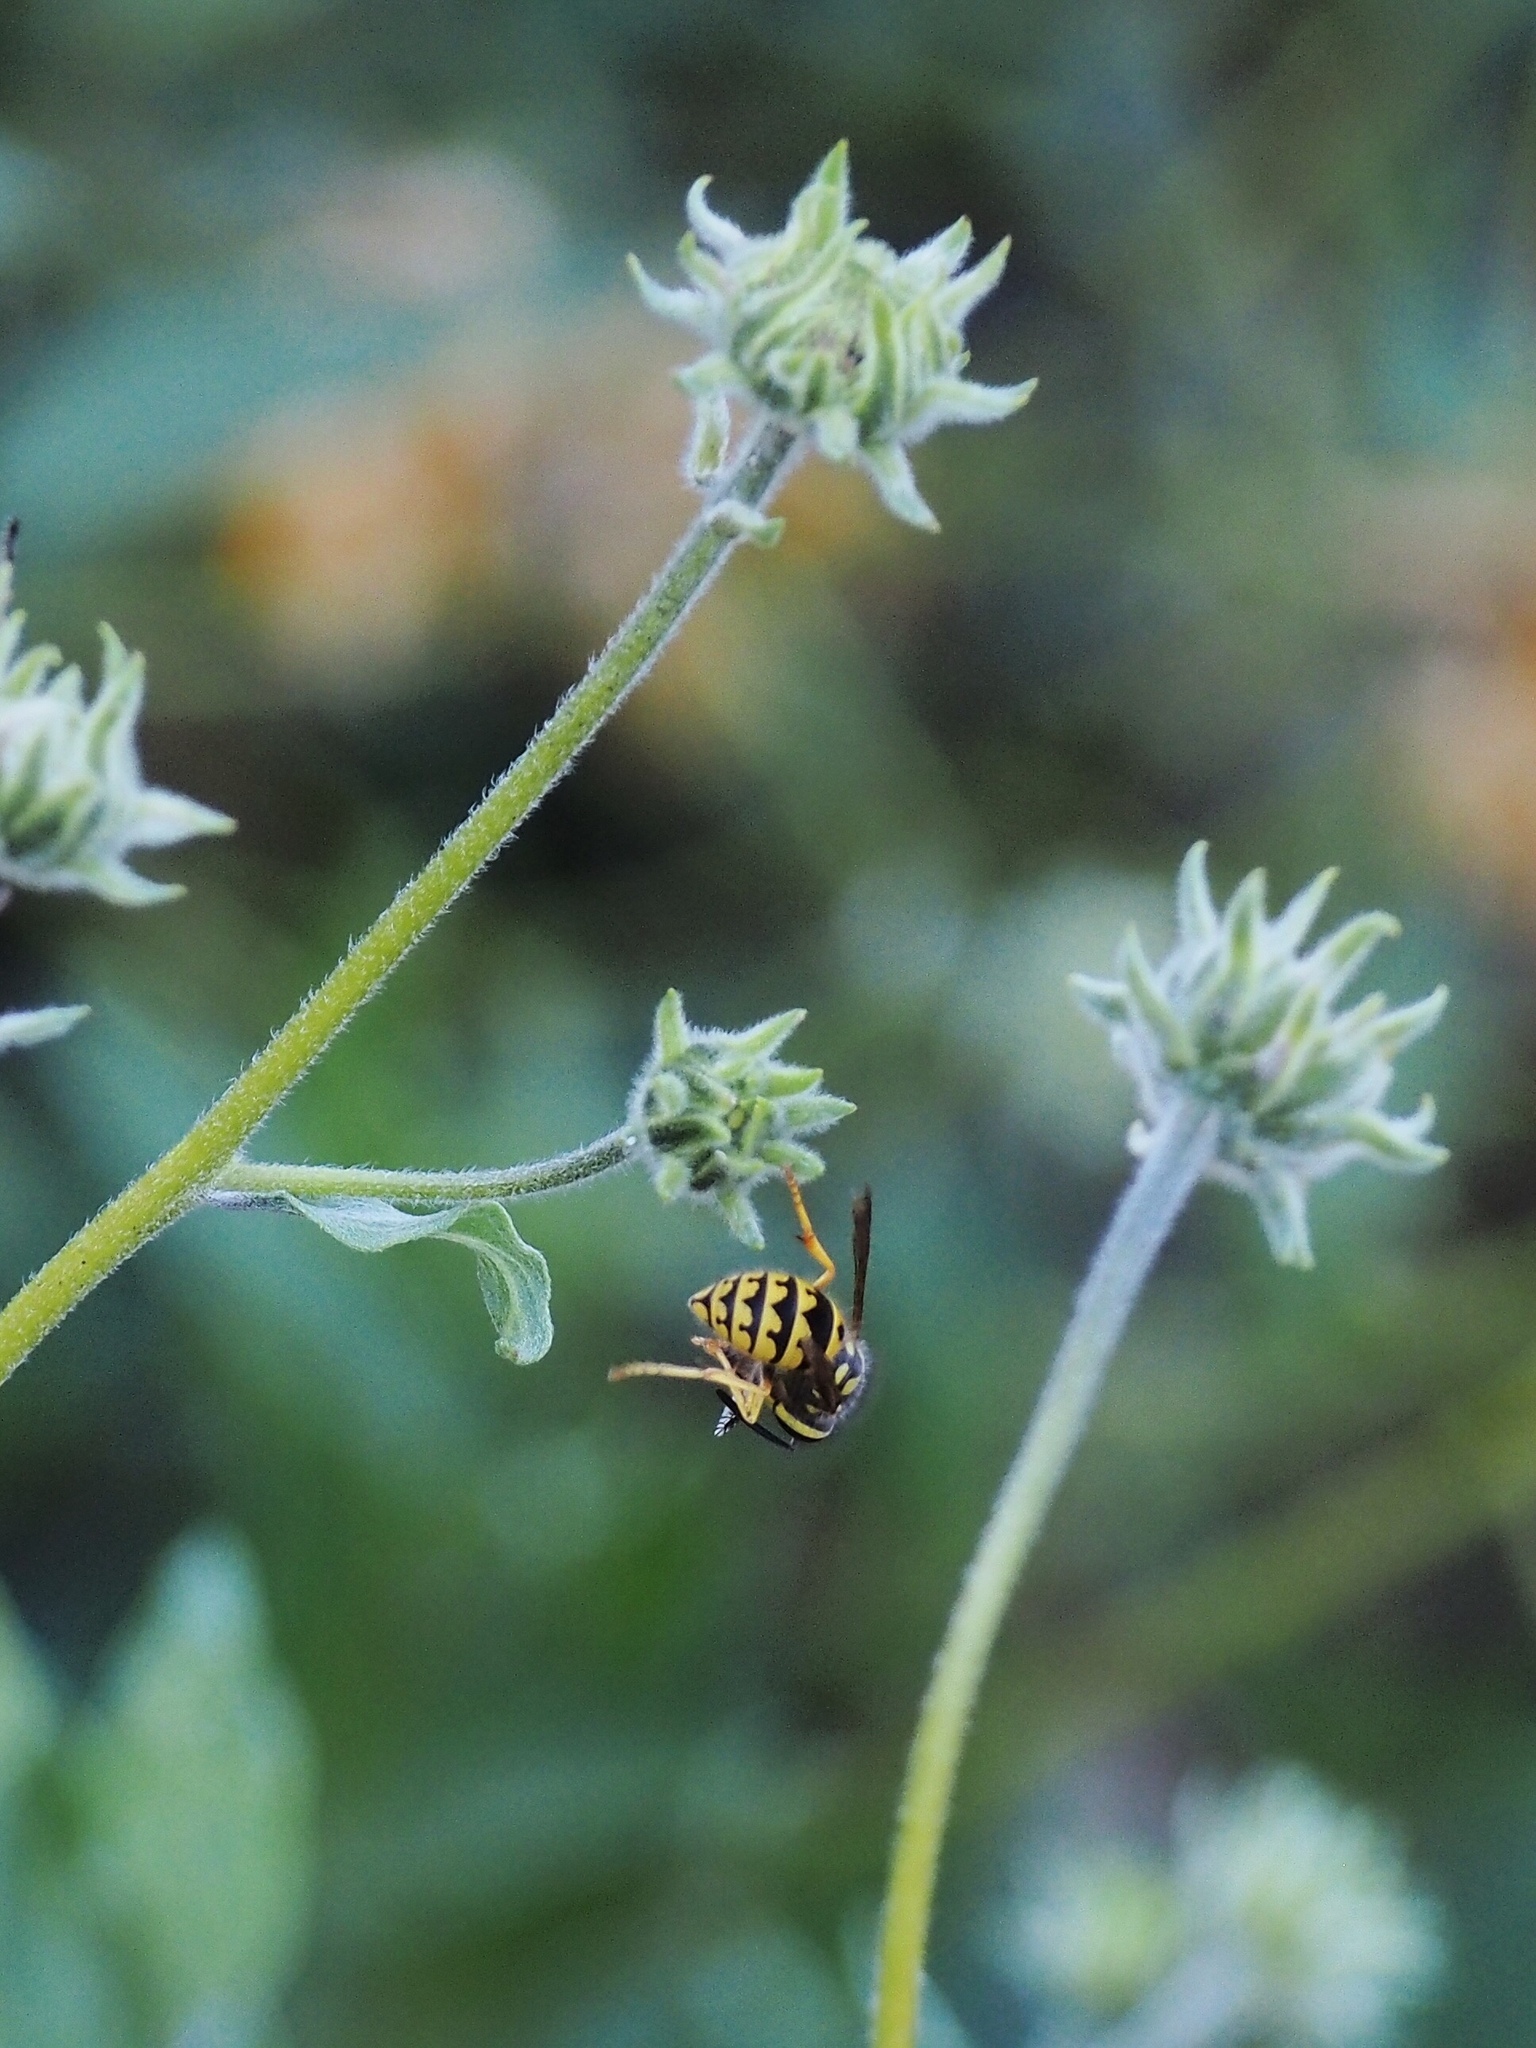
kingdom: Animalia
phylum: Arthropoda
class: Insecta
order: Hymenoptera
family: Vespidae
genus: Vespula
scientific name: Vespula pensylvanica
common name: Western yellowjacket
